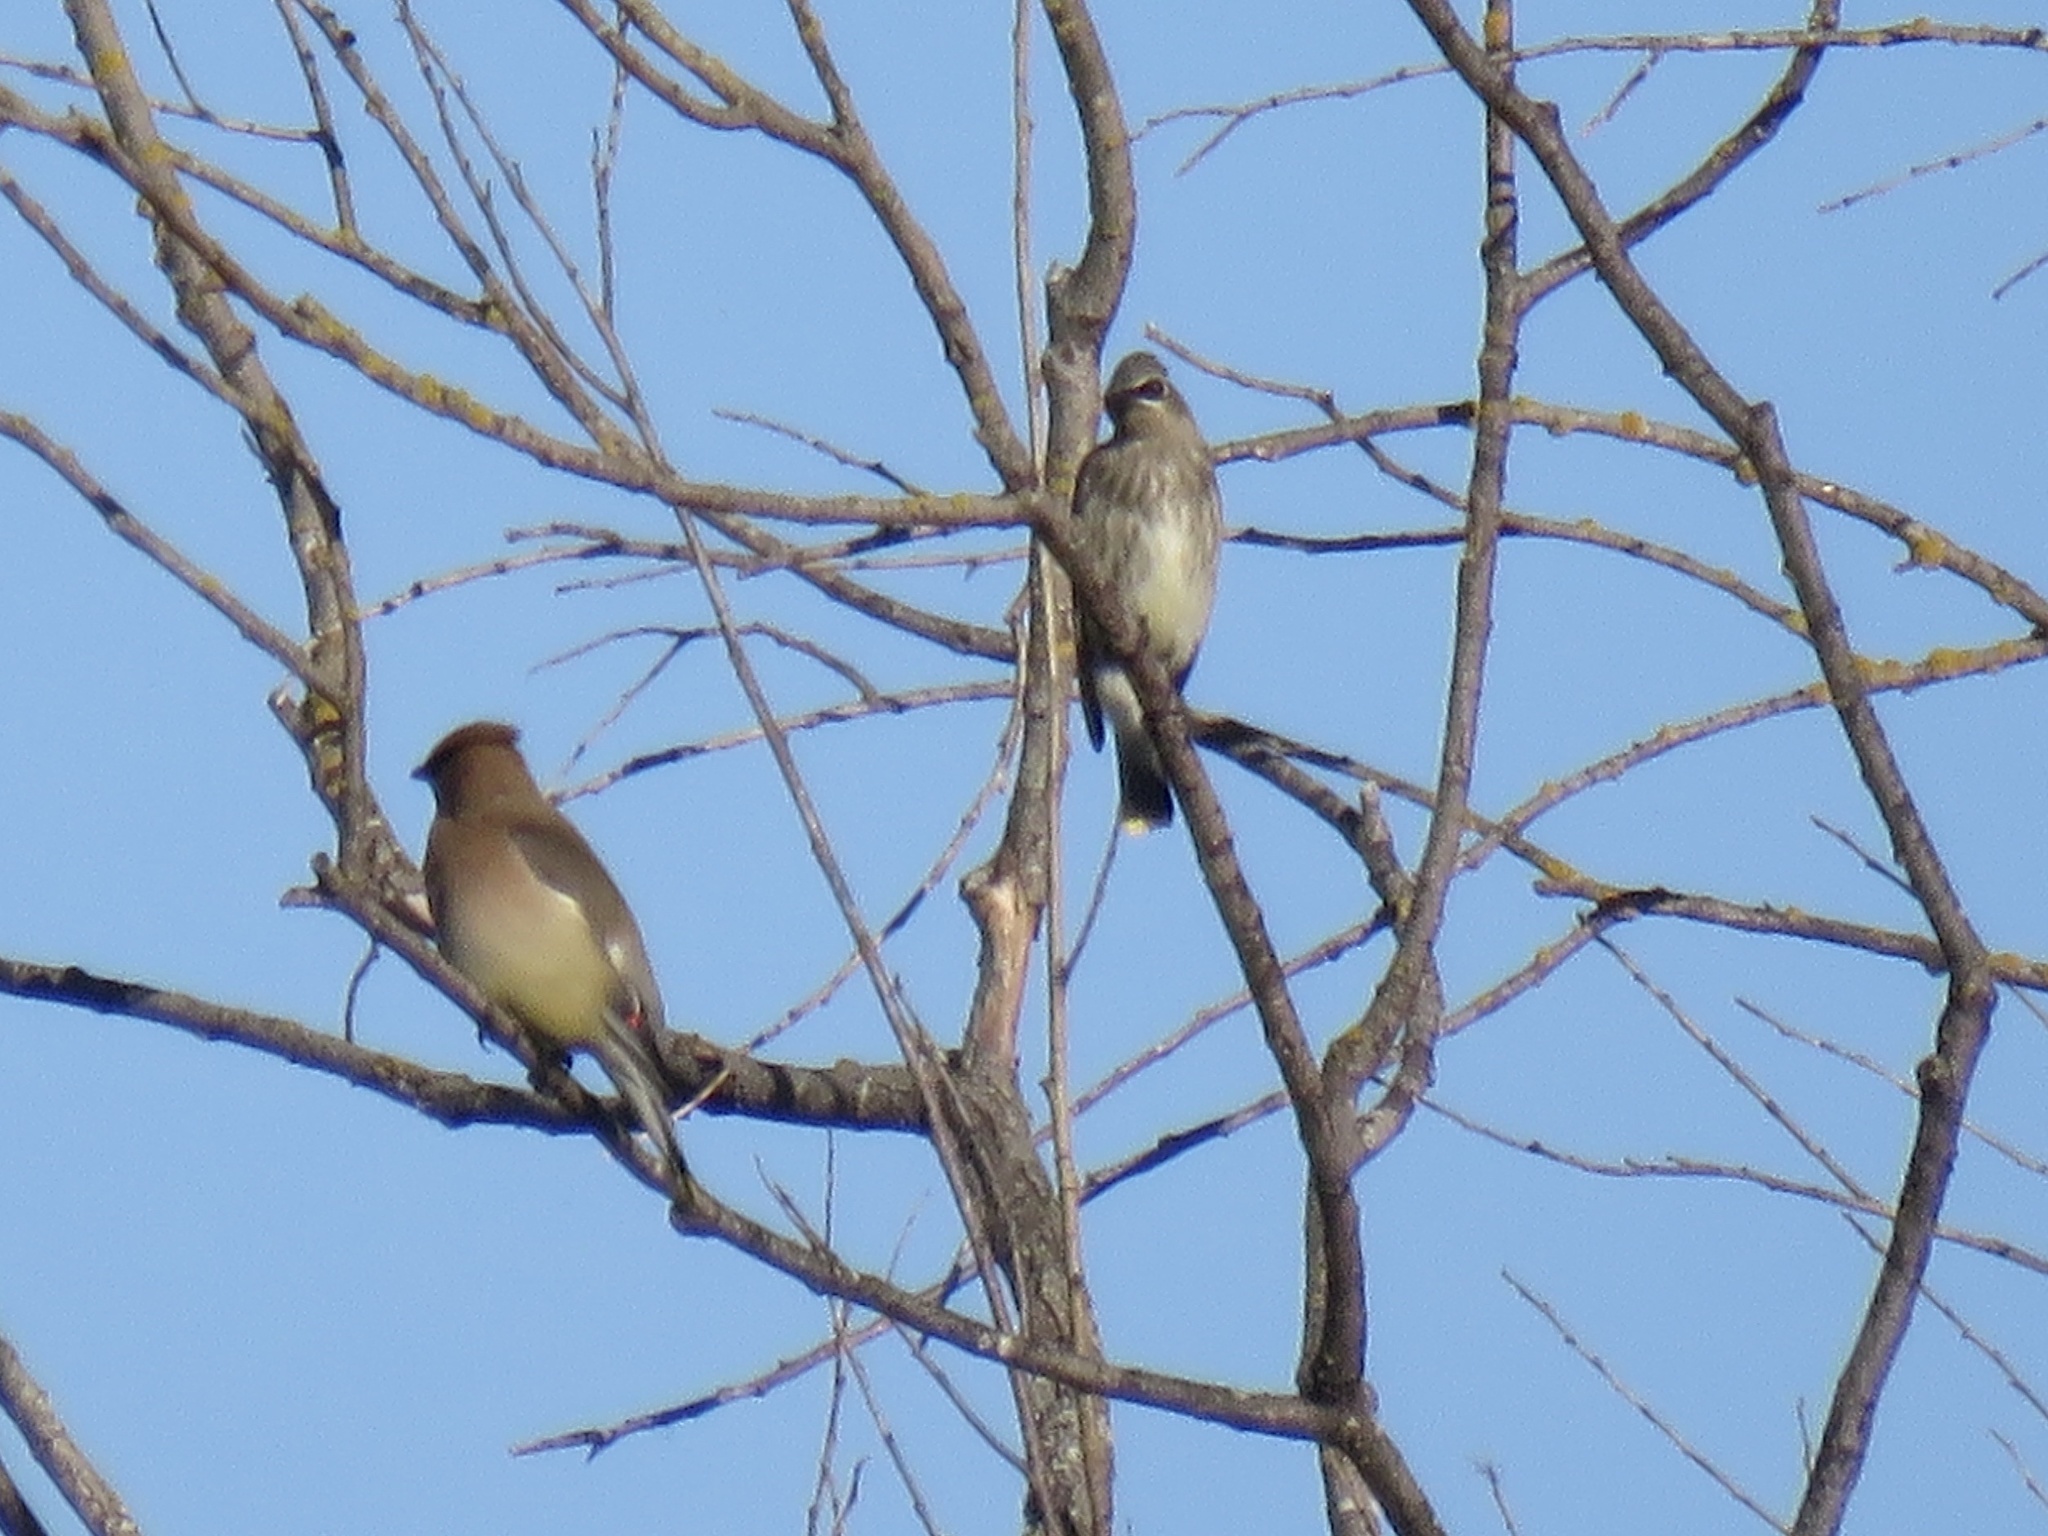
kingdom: Animalia
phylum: Chordata
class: Aves
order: Passeriformes
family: Bombycillidae
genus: Bombycilla
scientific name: Bombycilla cedrorum
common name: Cedar waxwing
